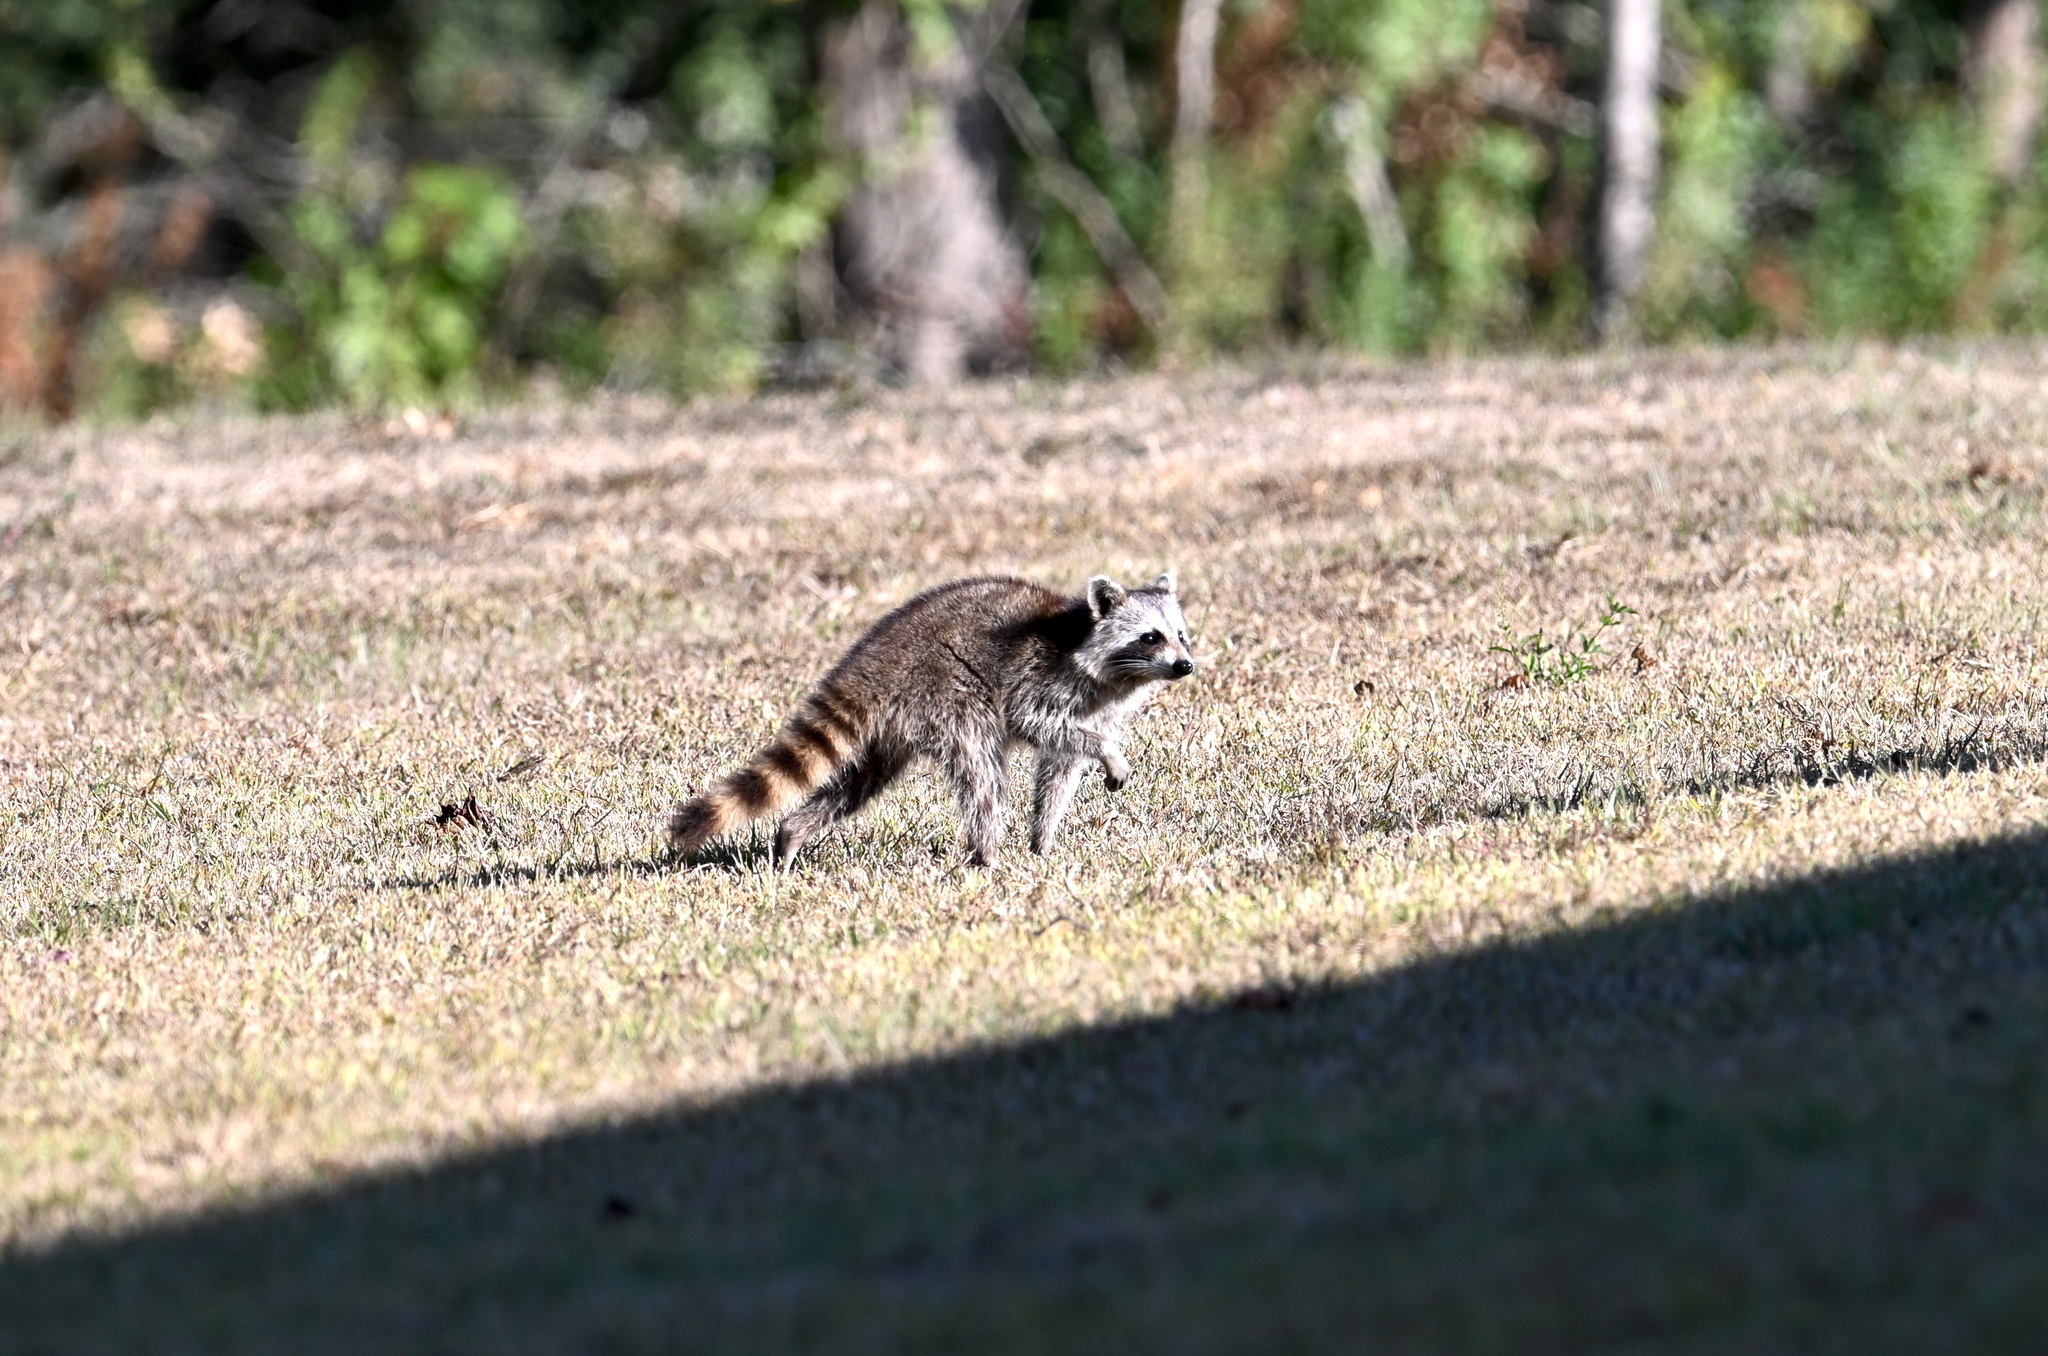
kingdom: Animalia
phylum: Chordata
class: Mammalia
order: Carnivora
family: Procyonidae
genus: Procyon
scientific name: Procyon lotor
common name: Raccoon
